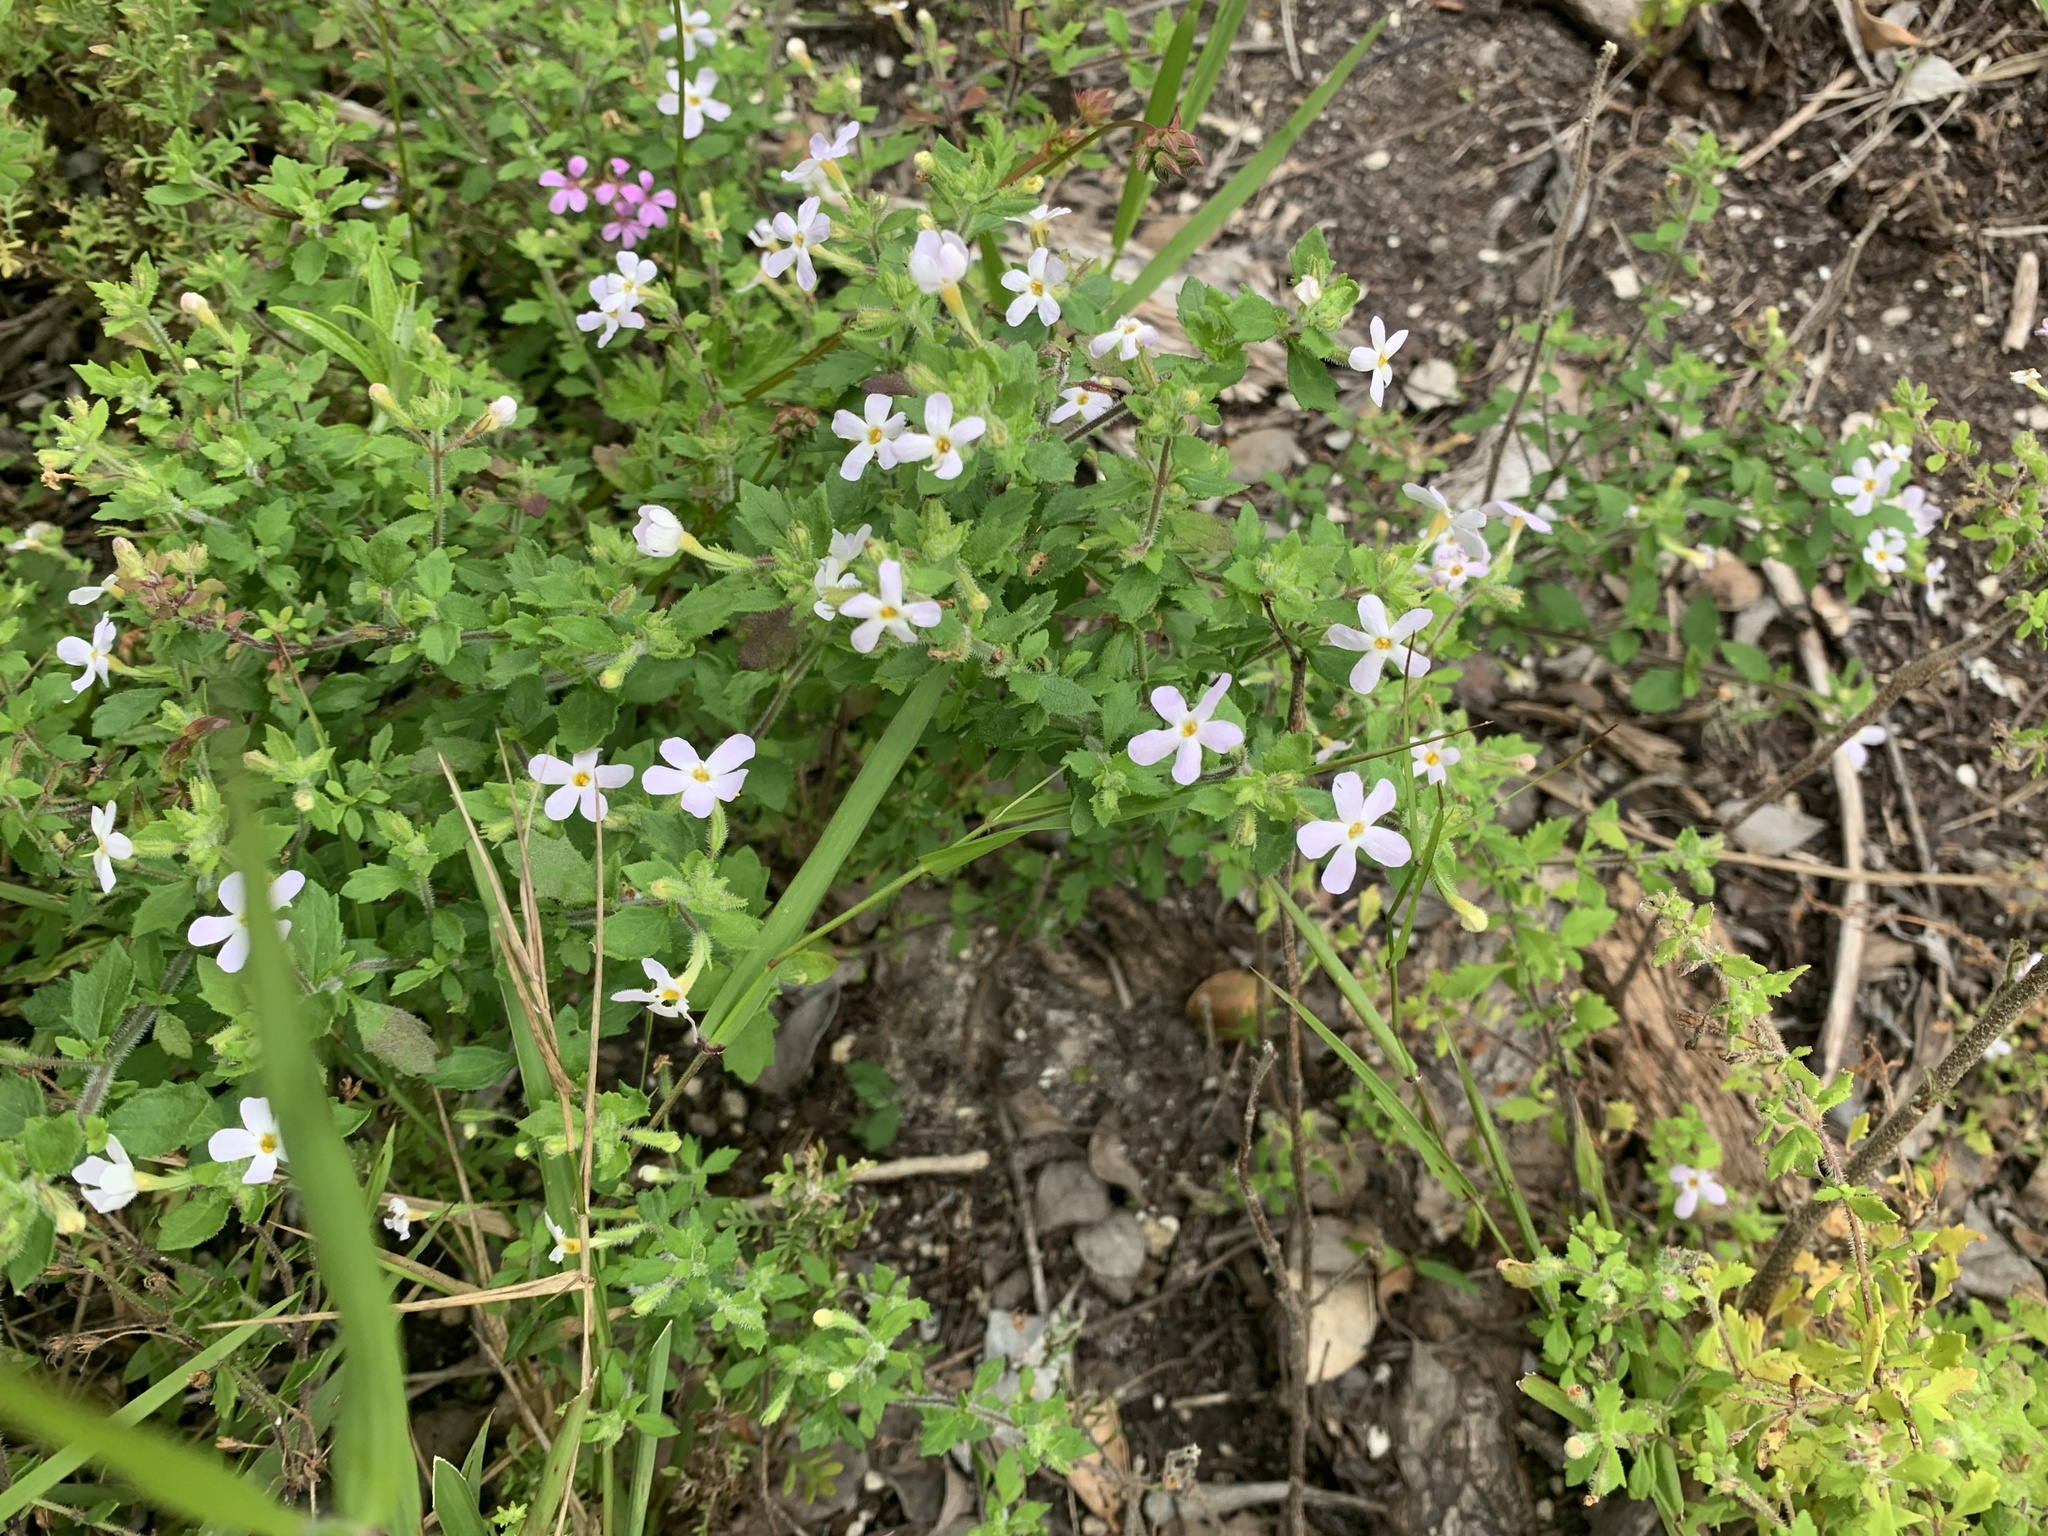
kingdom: Plantae
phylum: Tracheophyta
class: Magnoliopsida
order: Lamiales
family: Scrophulariaceae
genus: Chaenostoma
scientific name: Chaenostoma hispidum
